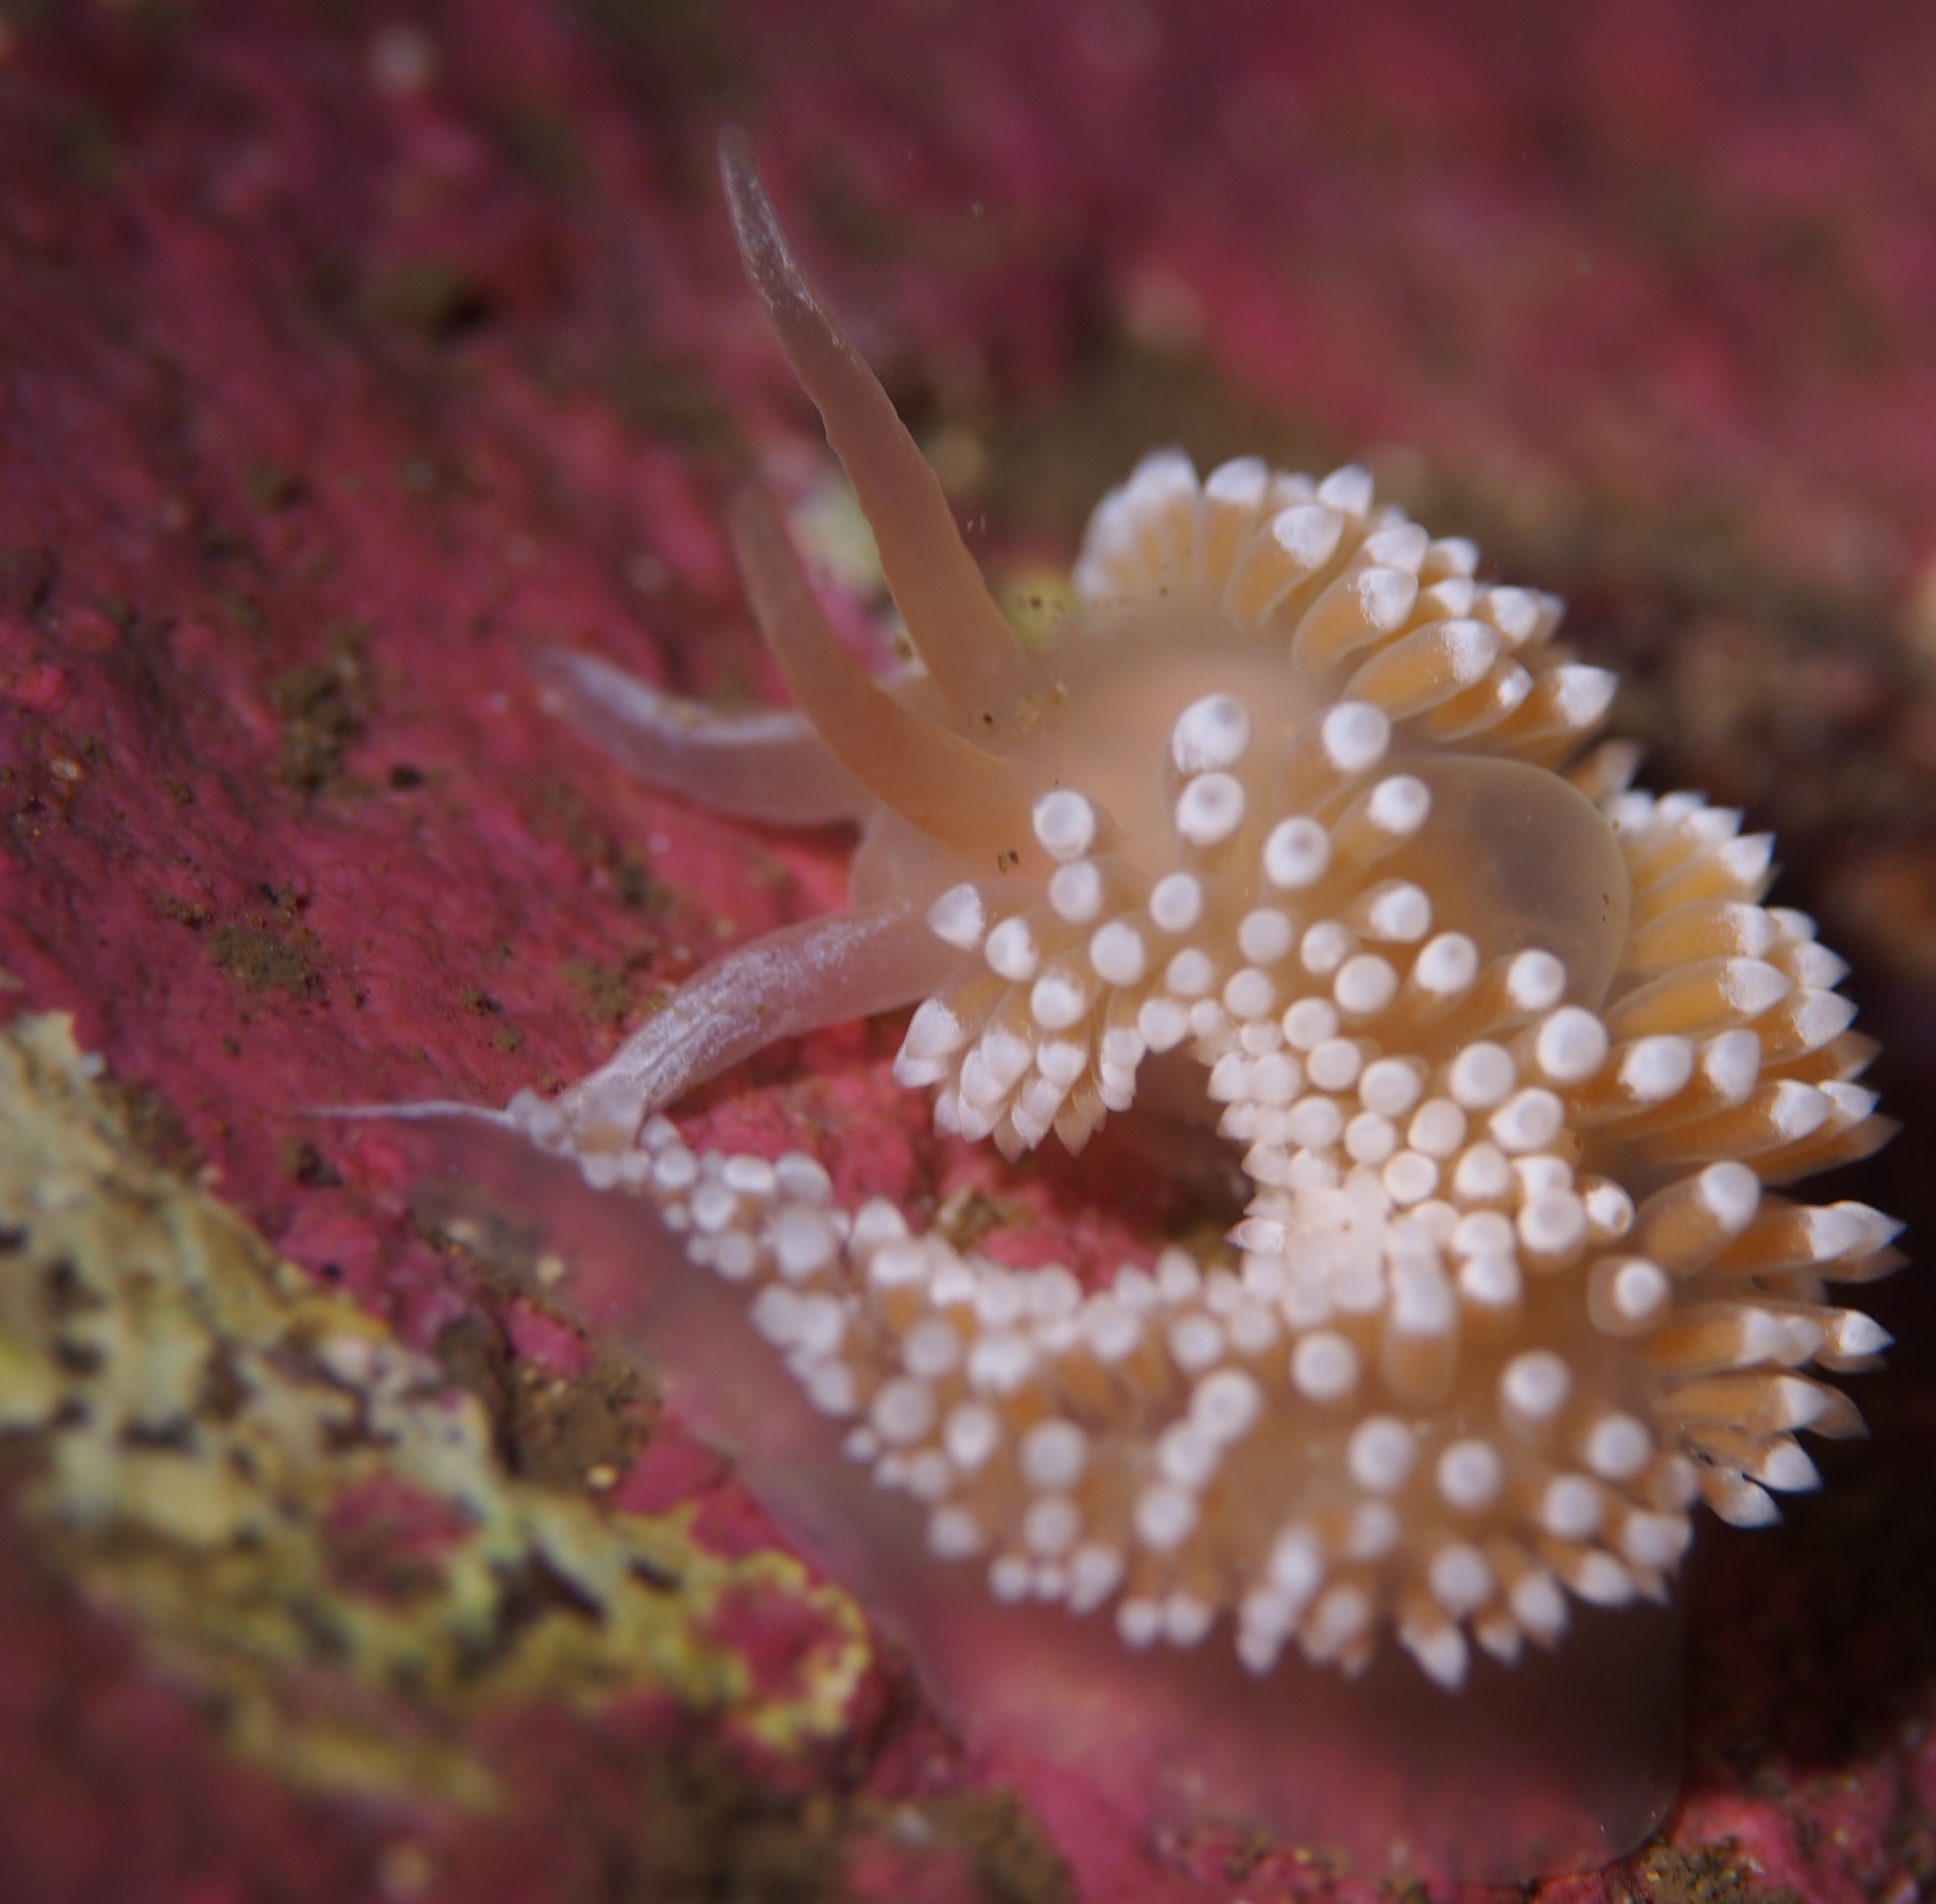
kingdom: Animalia
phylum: Mollusca
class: Gastropoda
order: Nudibranchia
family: Coryphellidae
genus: Coryphella
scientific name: Coryphella verrucosa
